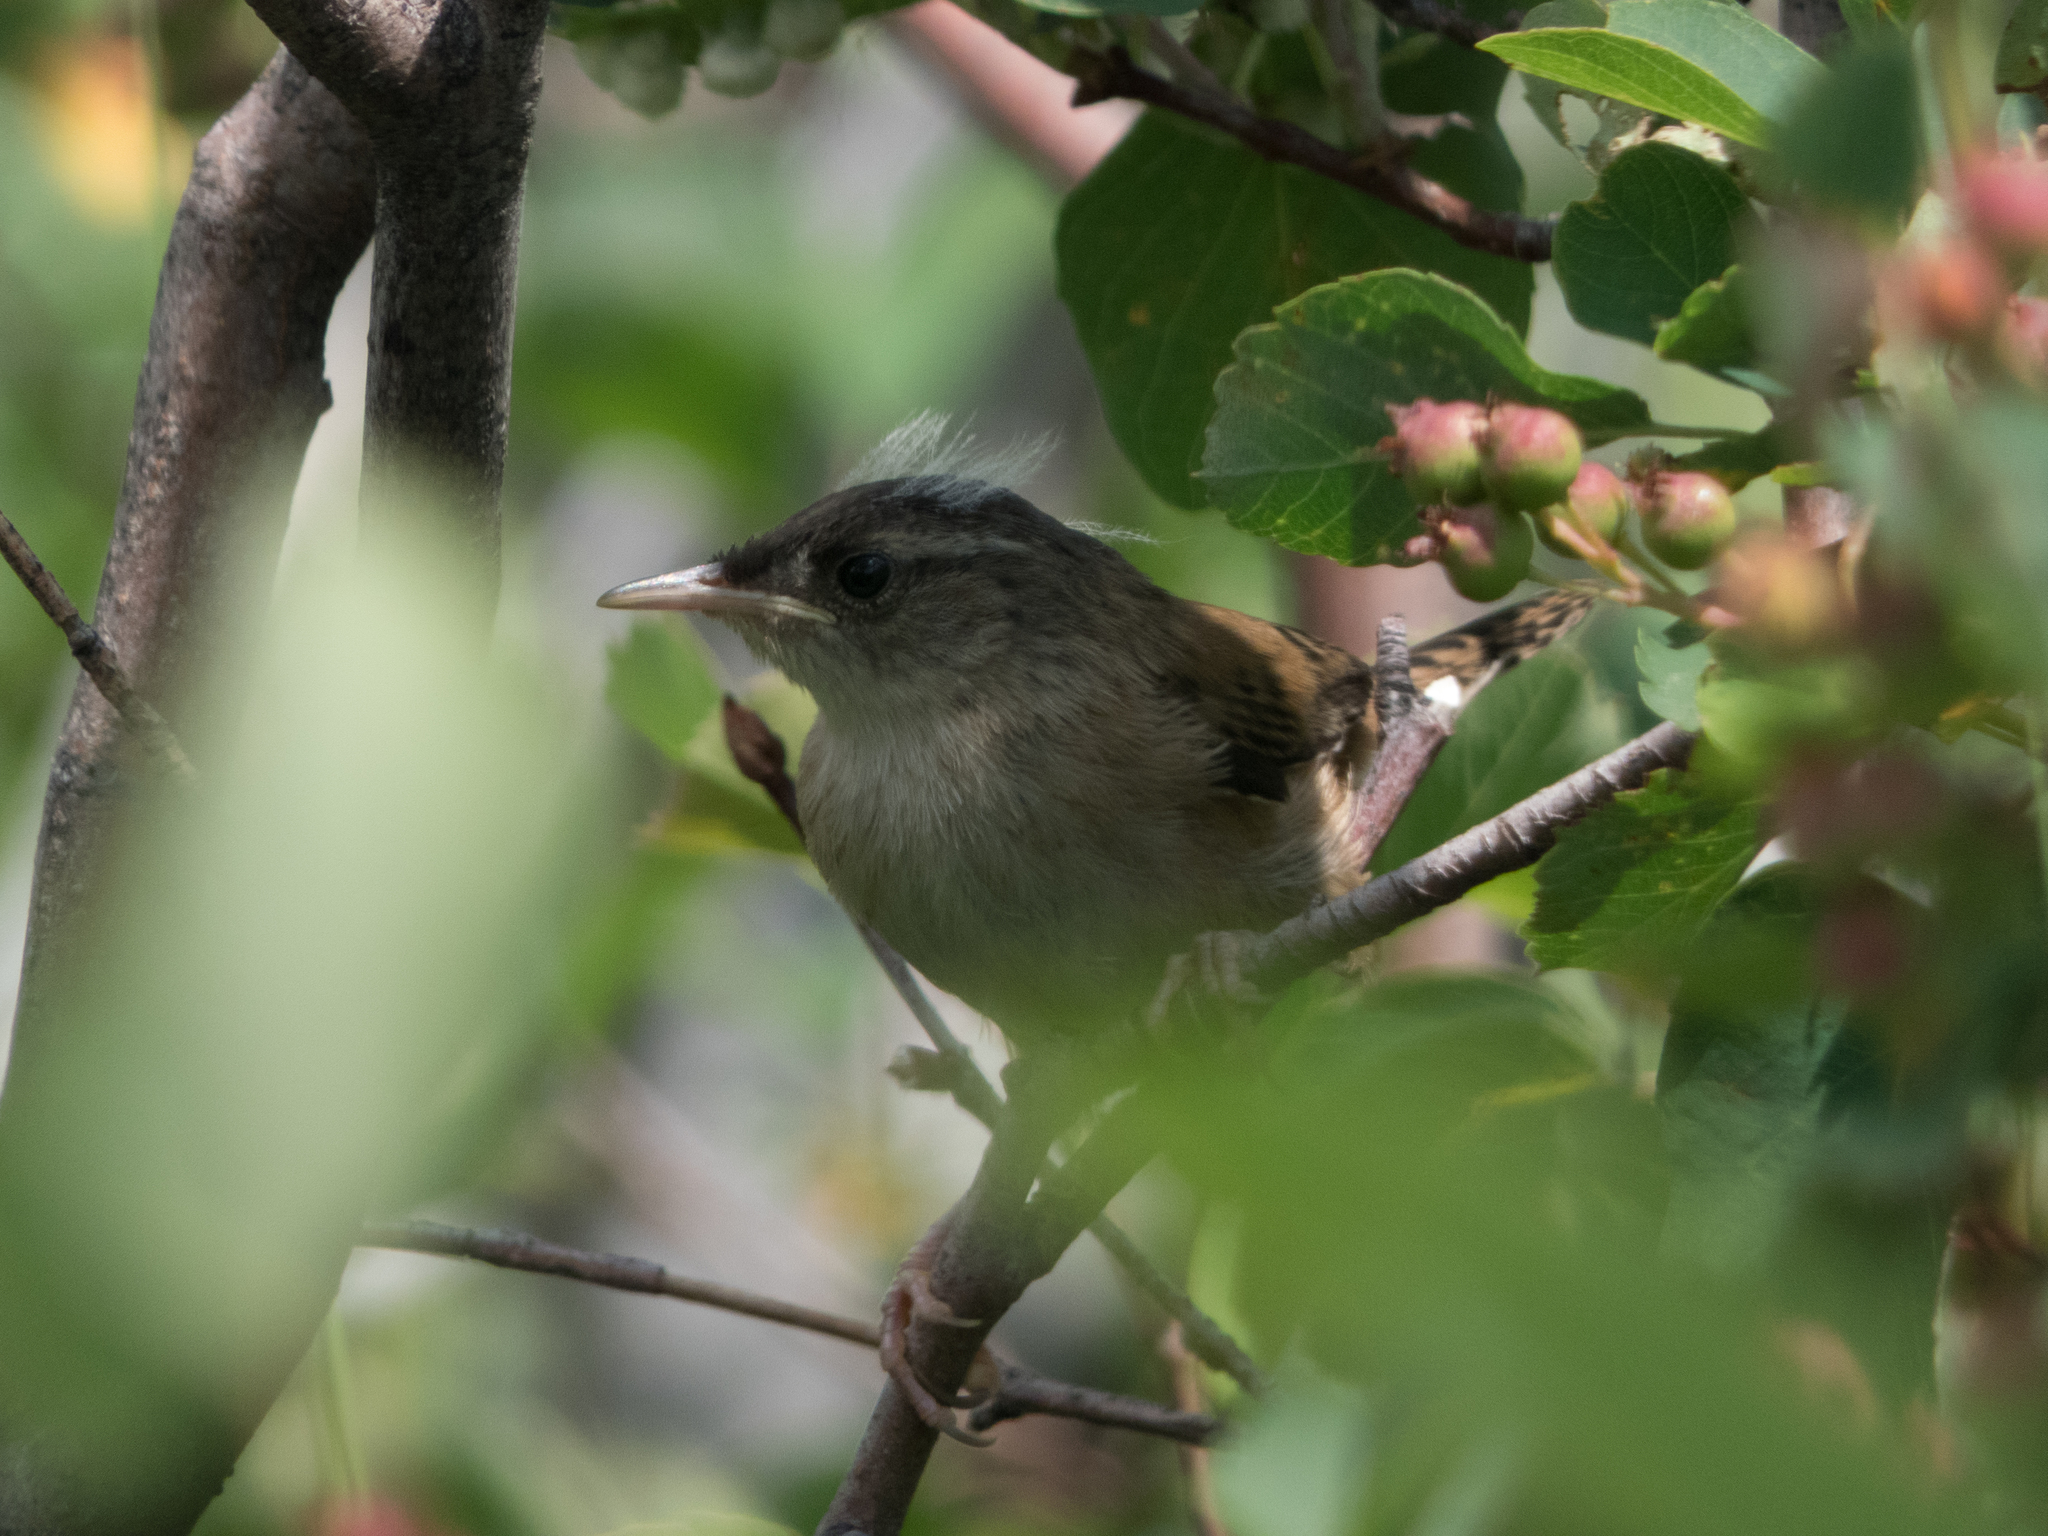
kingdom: Animalia
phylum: Chordata
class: Aves
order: Passeriformes
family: Troglodytidae
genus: Cistothorus
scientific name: Cistothorus palustris
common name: Marsh wren
